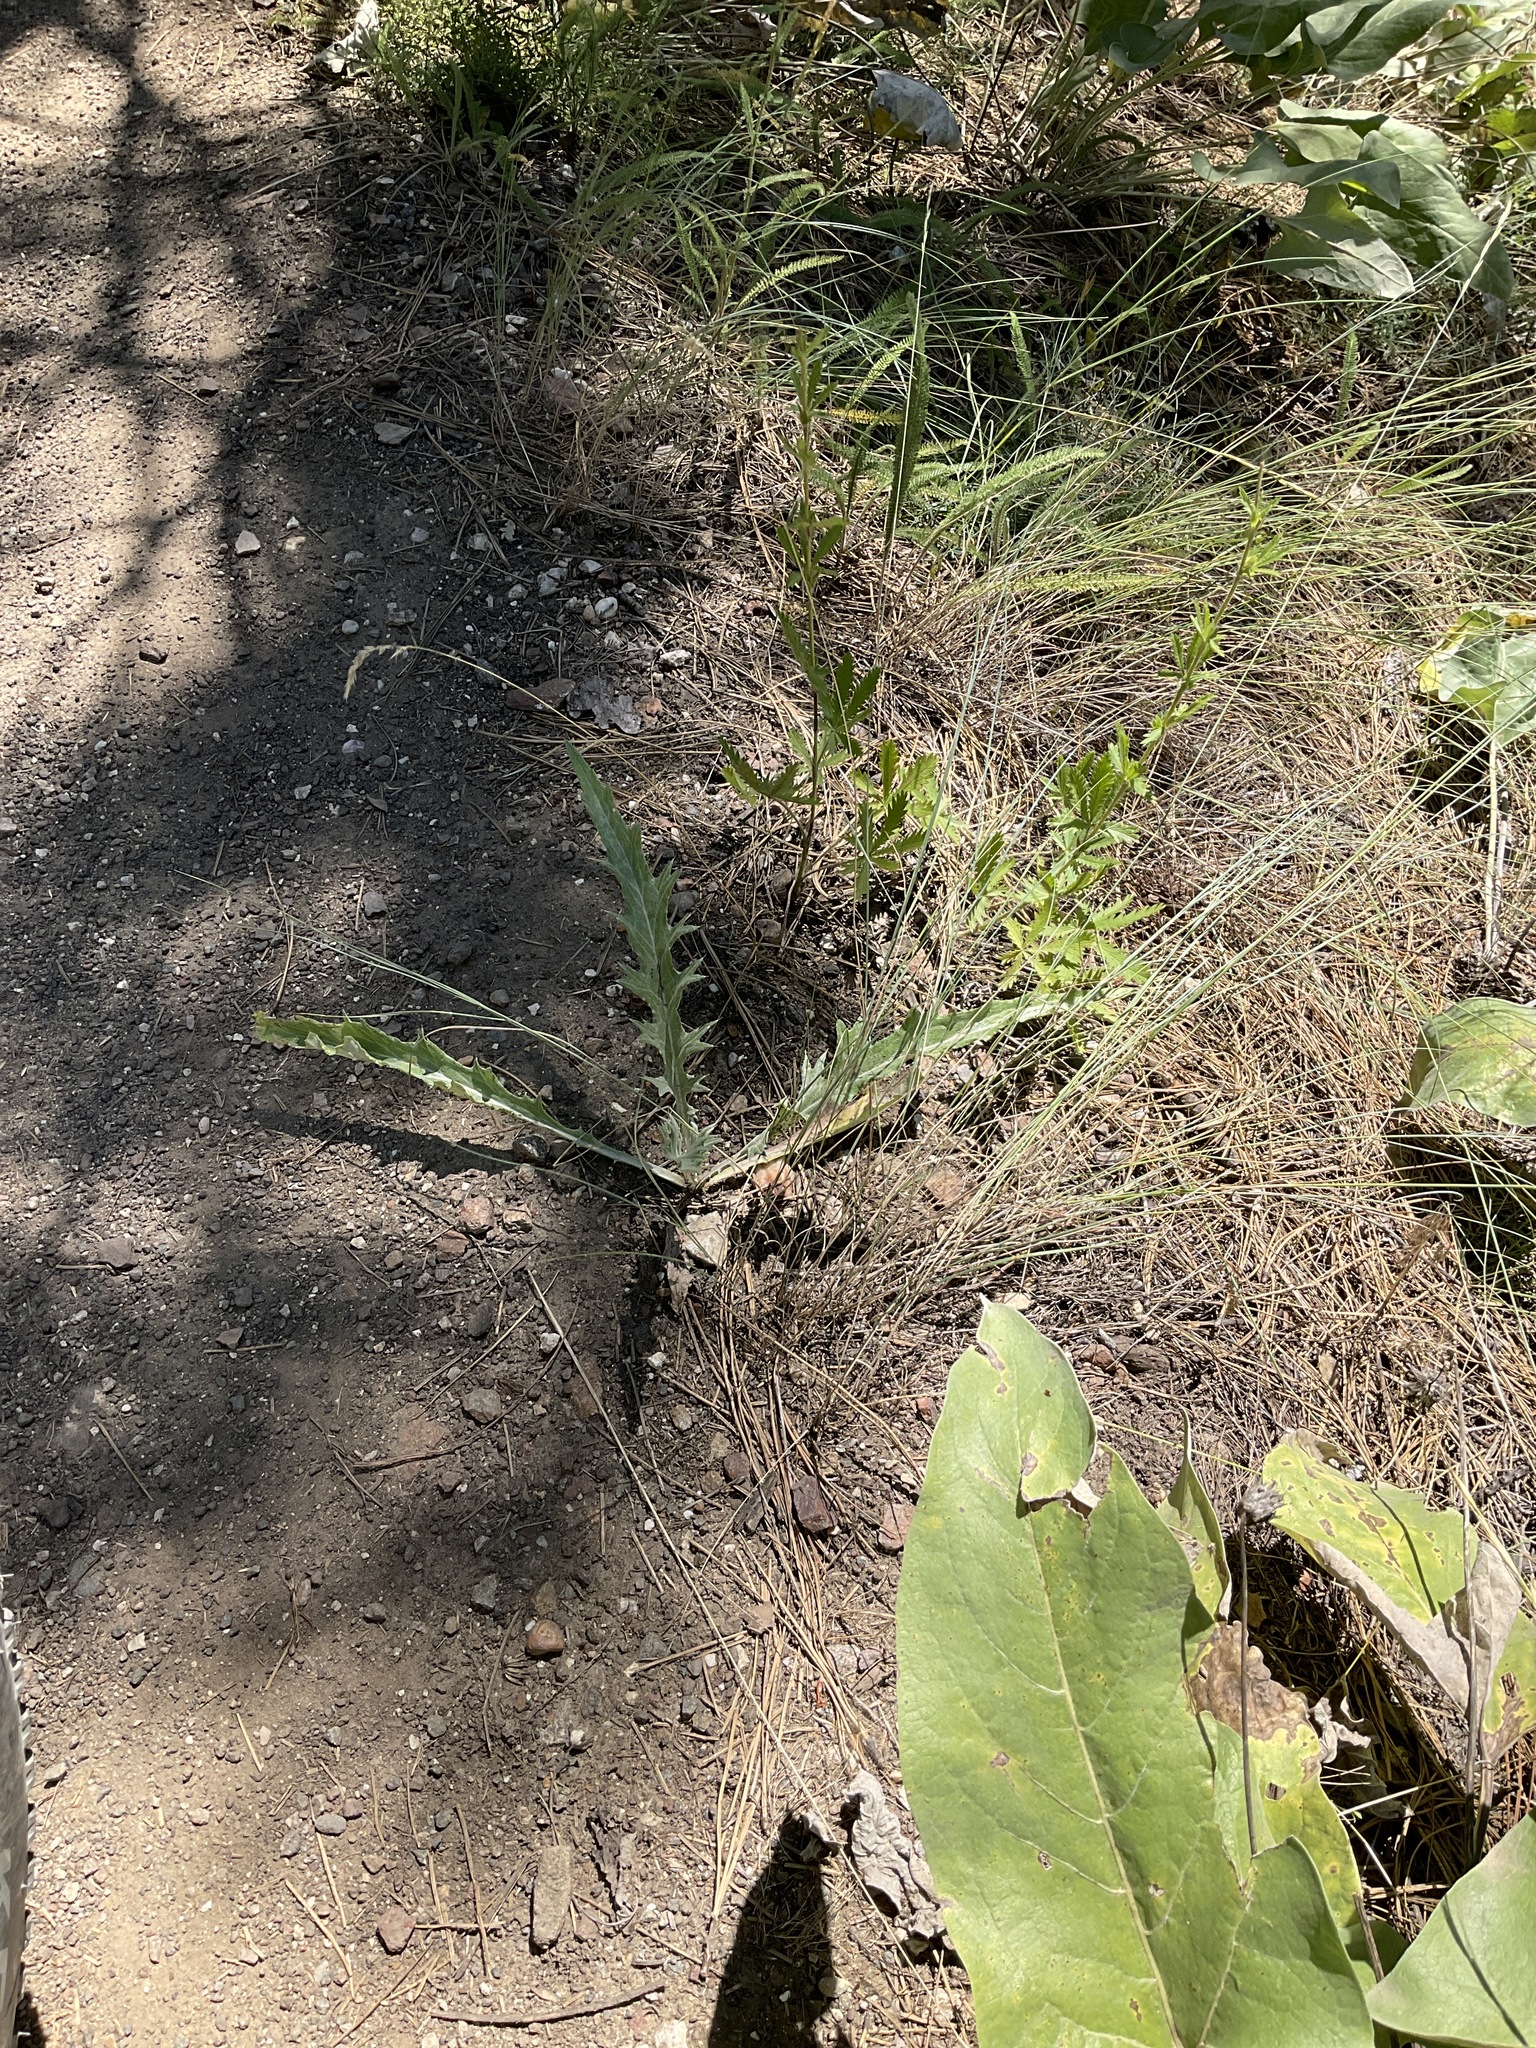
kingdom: Plantae
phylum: Tracheophyta
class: Magnoliopsida
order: Asterales
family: Asteraceae
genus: Cirsium
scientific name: Cirsium undulatum
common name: Pasture thistle
